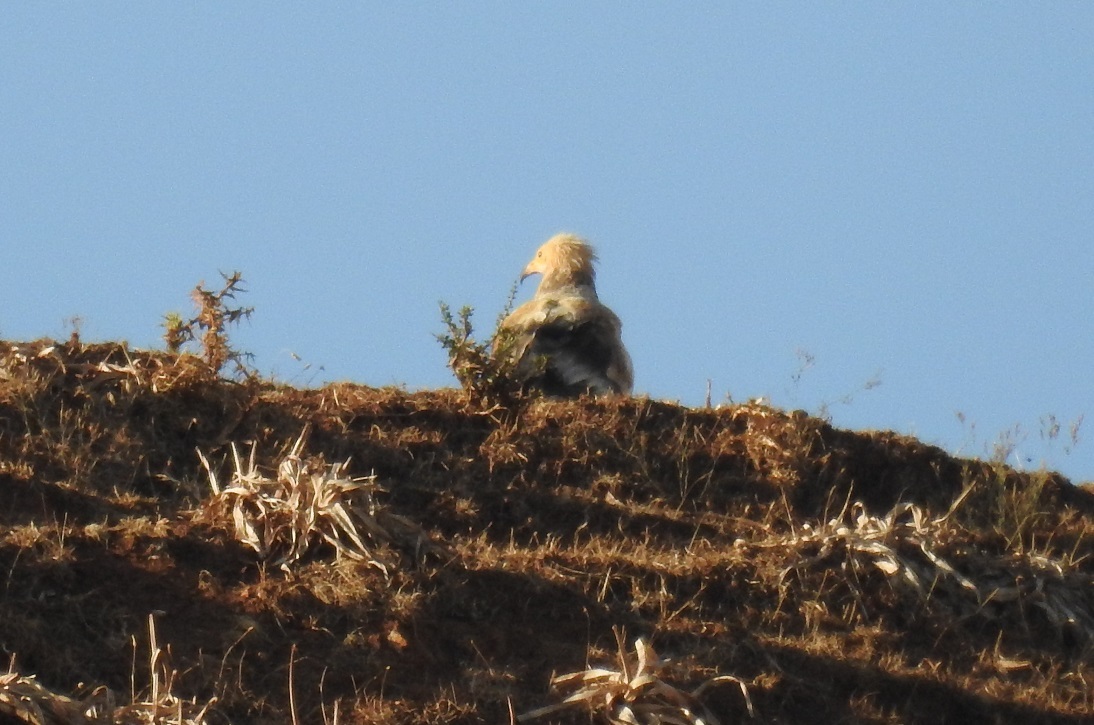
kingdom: Animalia
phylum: Chordata
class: Aves
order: Accipitriformes
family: Accipitridae
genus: Neophron
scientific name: Neophron percnopterus
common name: Egyptian vulture
